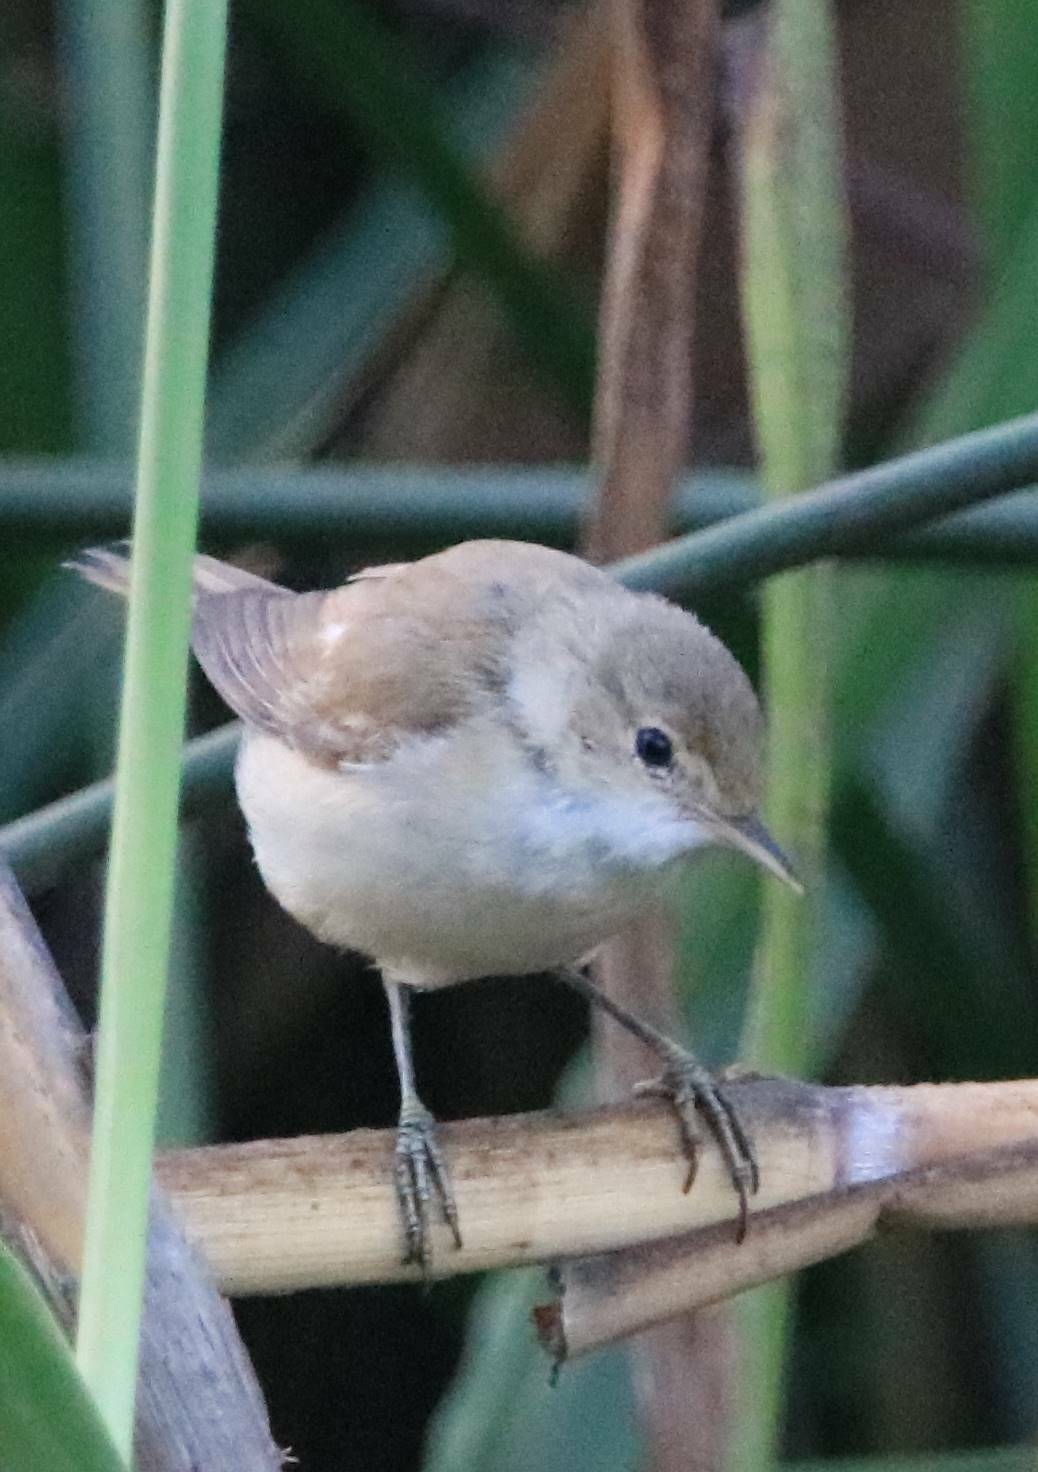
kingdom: Animalia
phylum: Chordata
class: Aves
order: Passeriformes
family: Acrocephalidae
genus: Acrocephalus
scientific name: Acrocephalus scirpaceus
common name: Eurasian reed warbler
